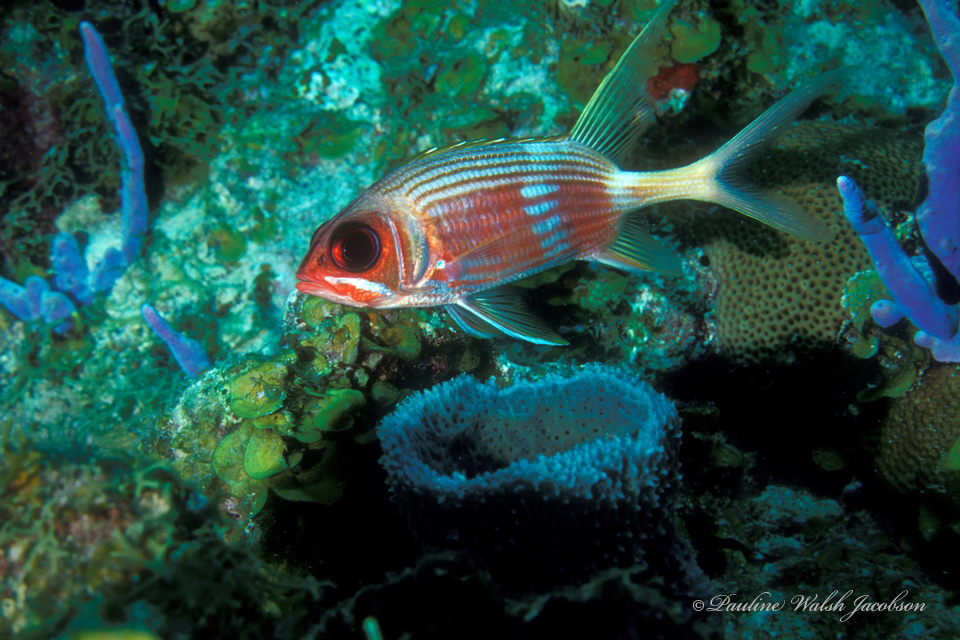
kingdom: Animalia
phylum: Chordata
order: Beryciformes
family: Holocentridae
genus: Holocentrus
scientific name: Holocentrus rufus
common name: Longspine squirrelfish
